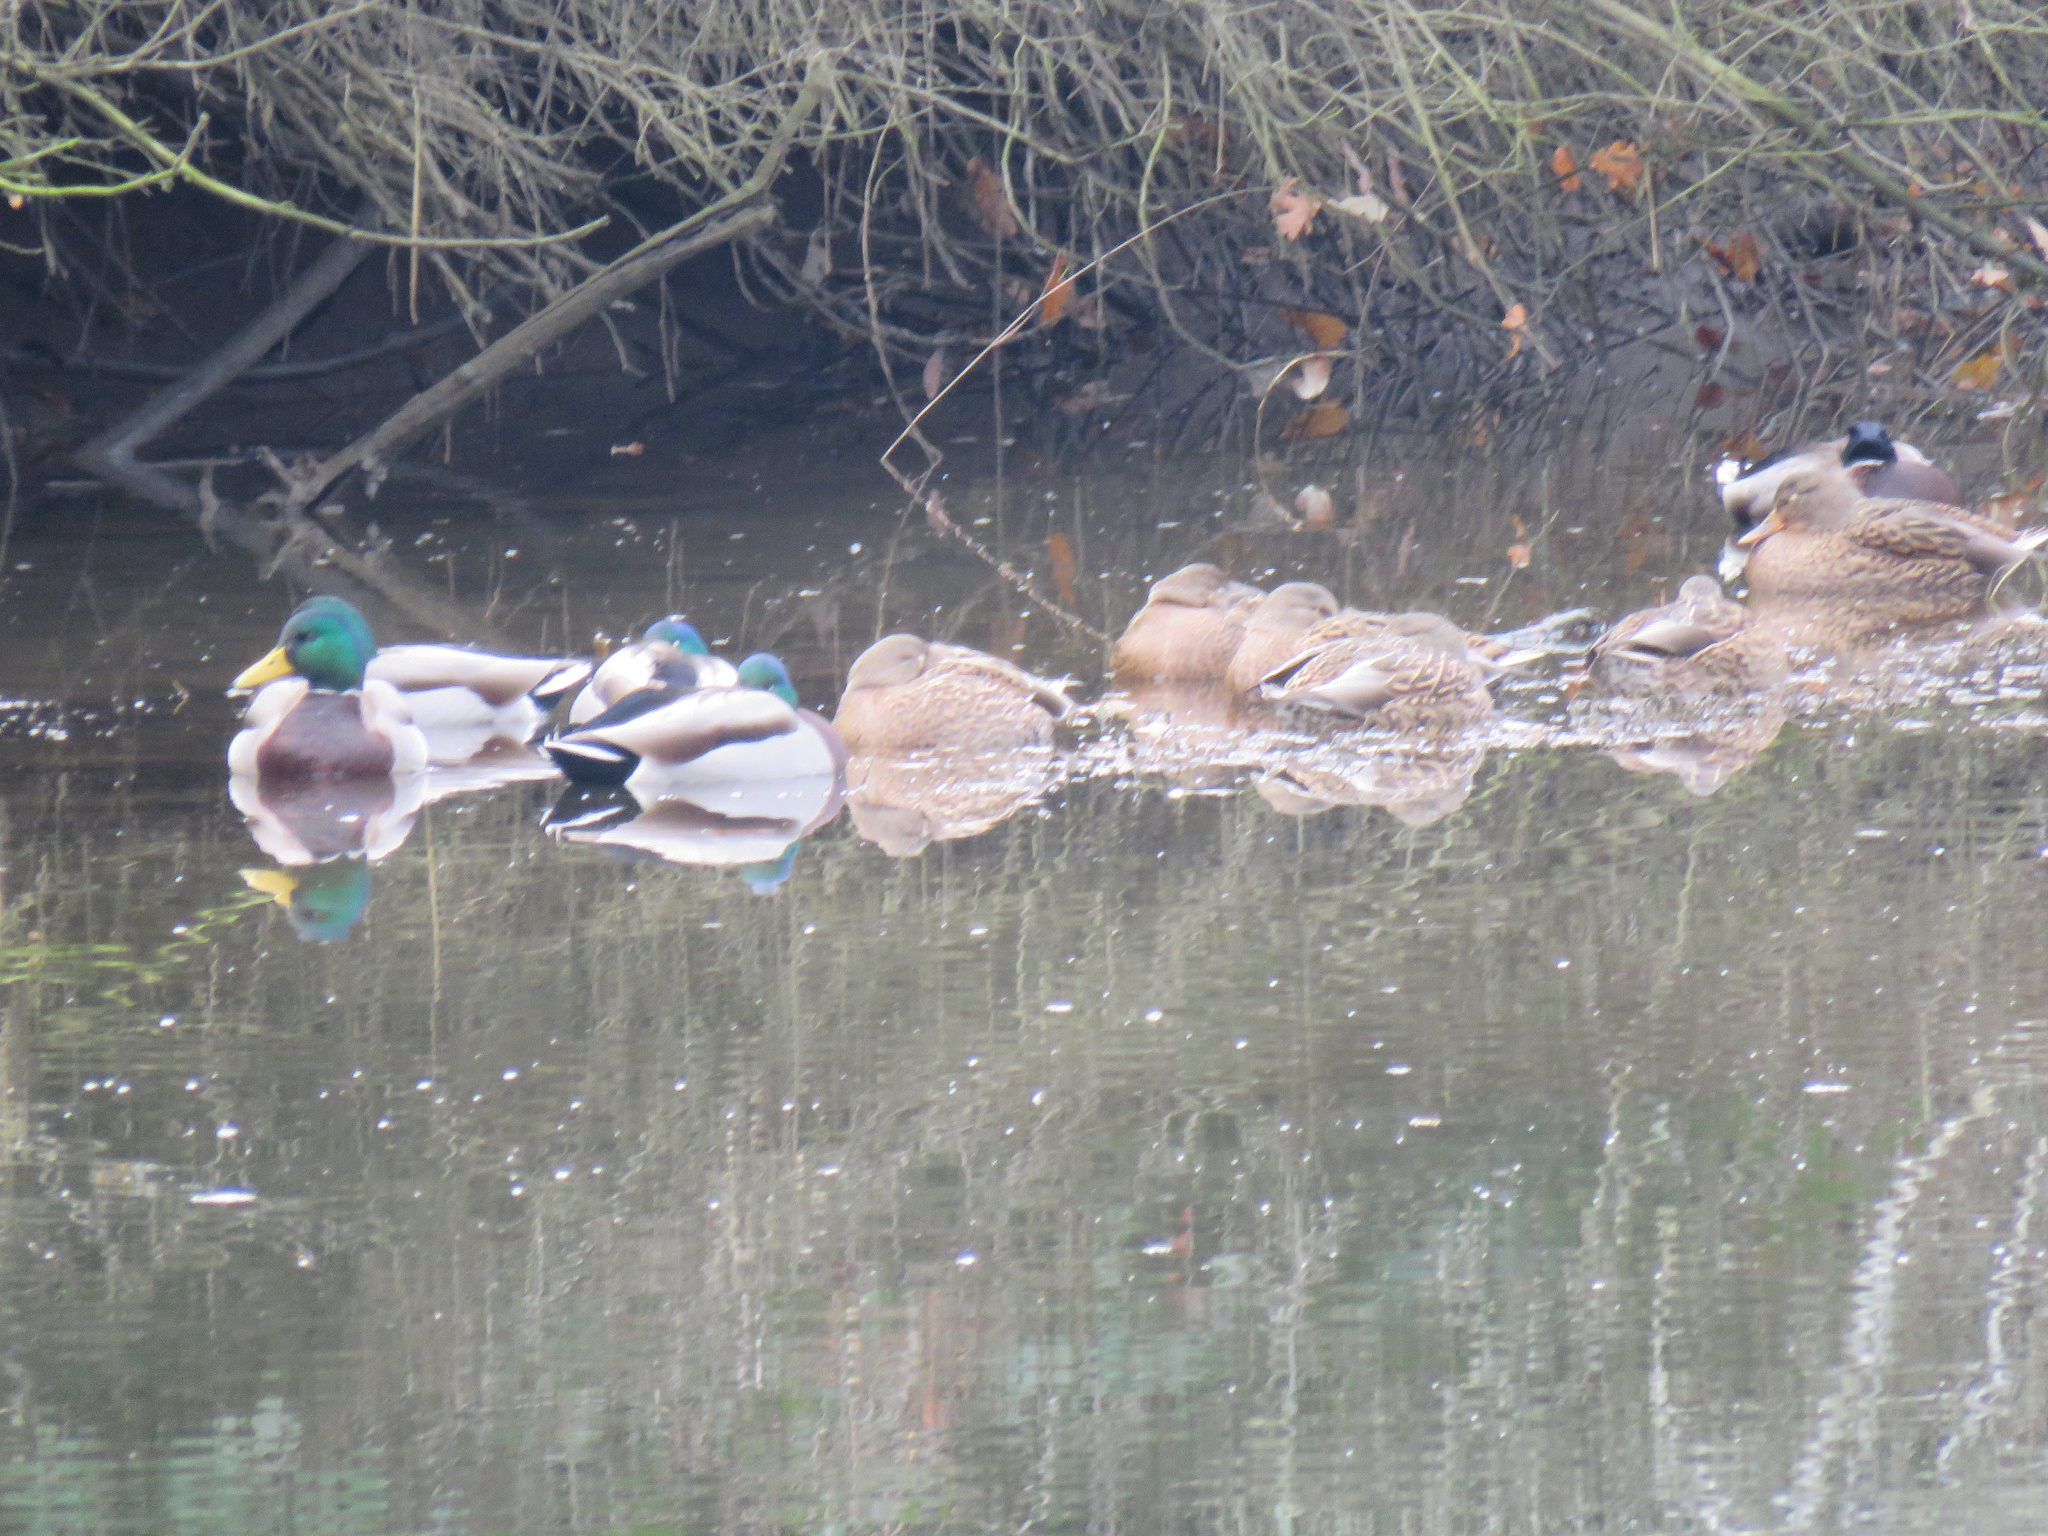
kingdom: Animalia
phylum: Chordata
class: Aves
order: Anseriformes
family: Anatidae
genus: Anas
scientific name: Anas platyrhynchos
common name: Mallard
